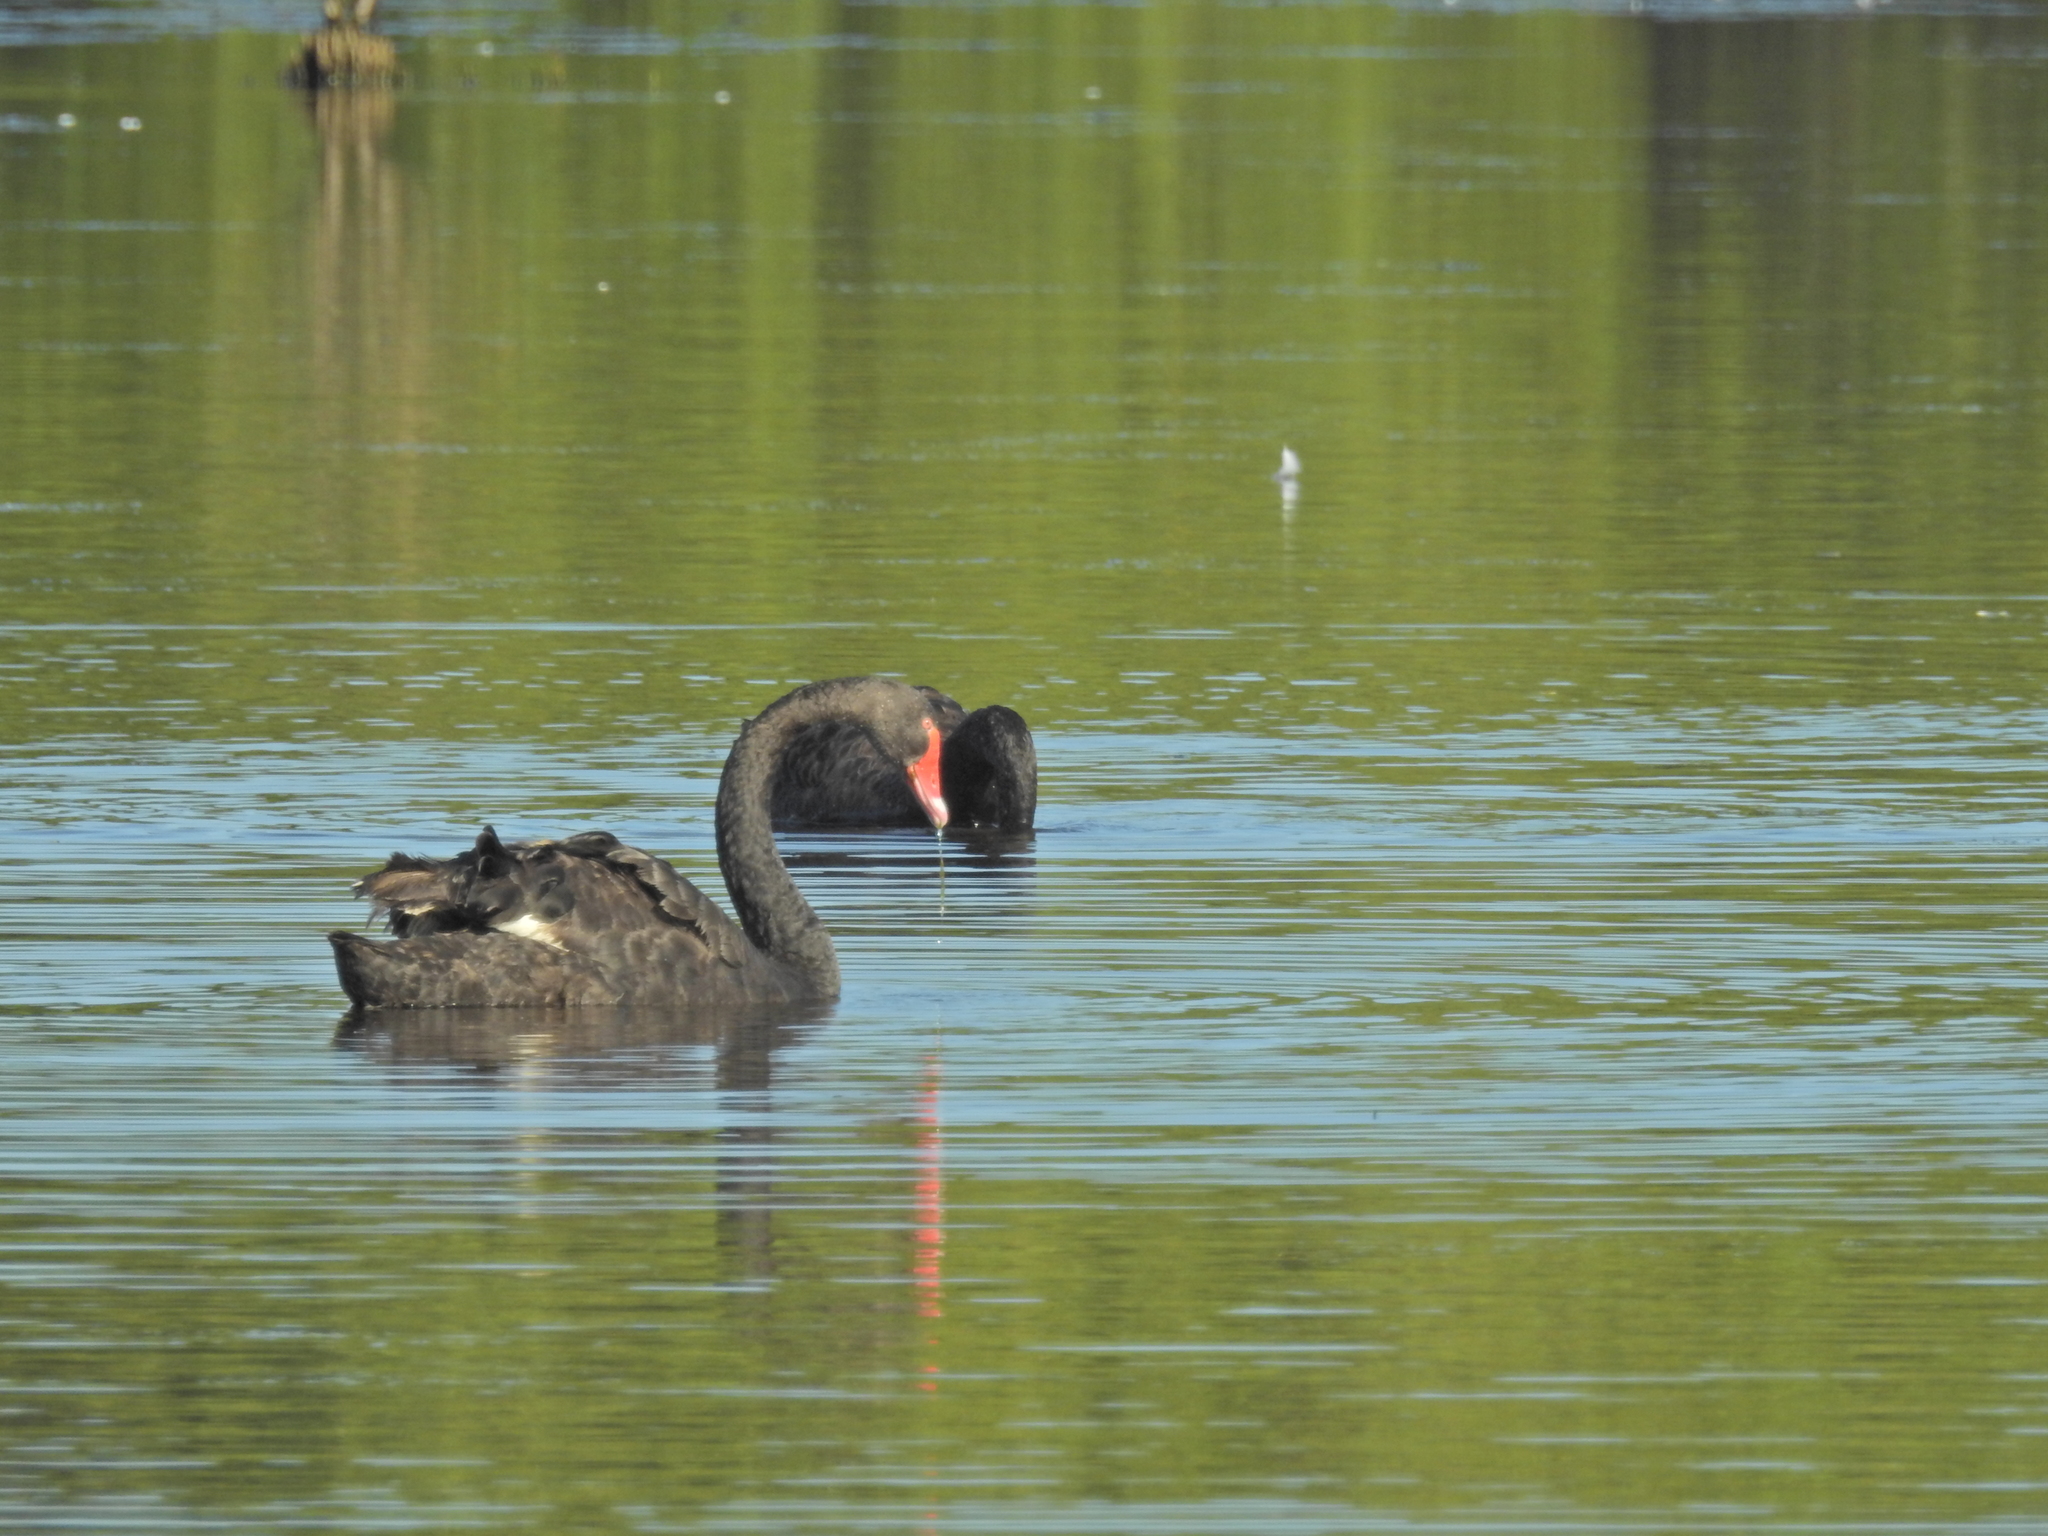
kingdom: Animalia
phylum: Chordata
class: Aves
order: Anseriformes
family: Anatidae
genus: Cygnus
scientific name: Cygnus atratus
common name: Black swan
